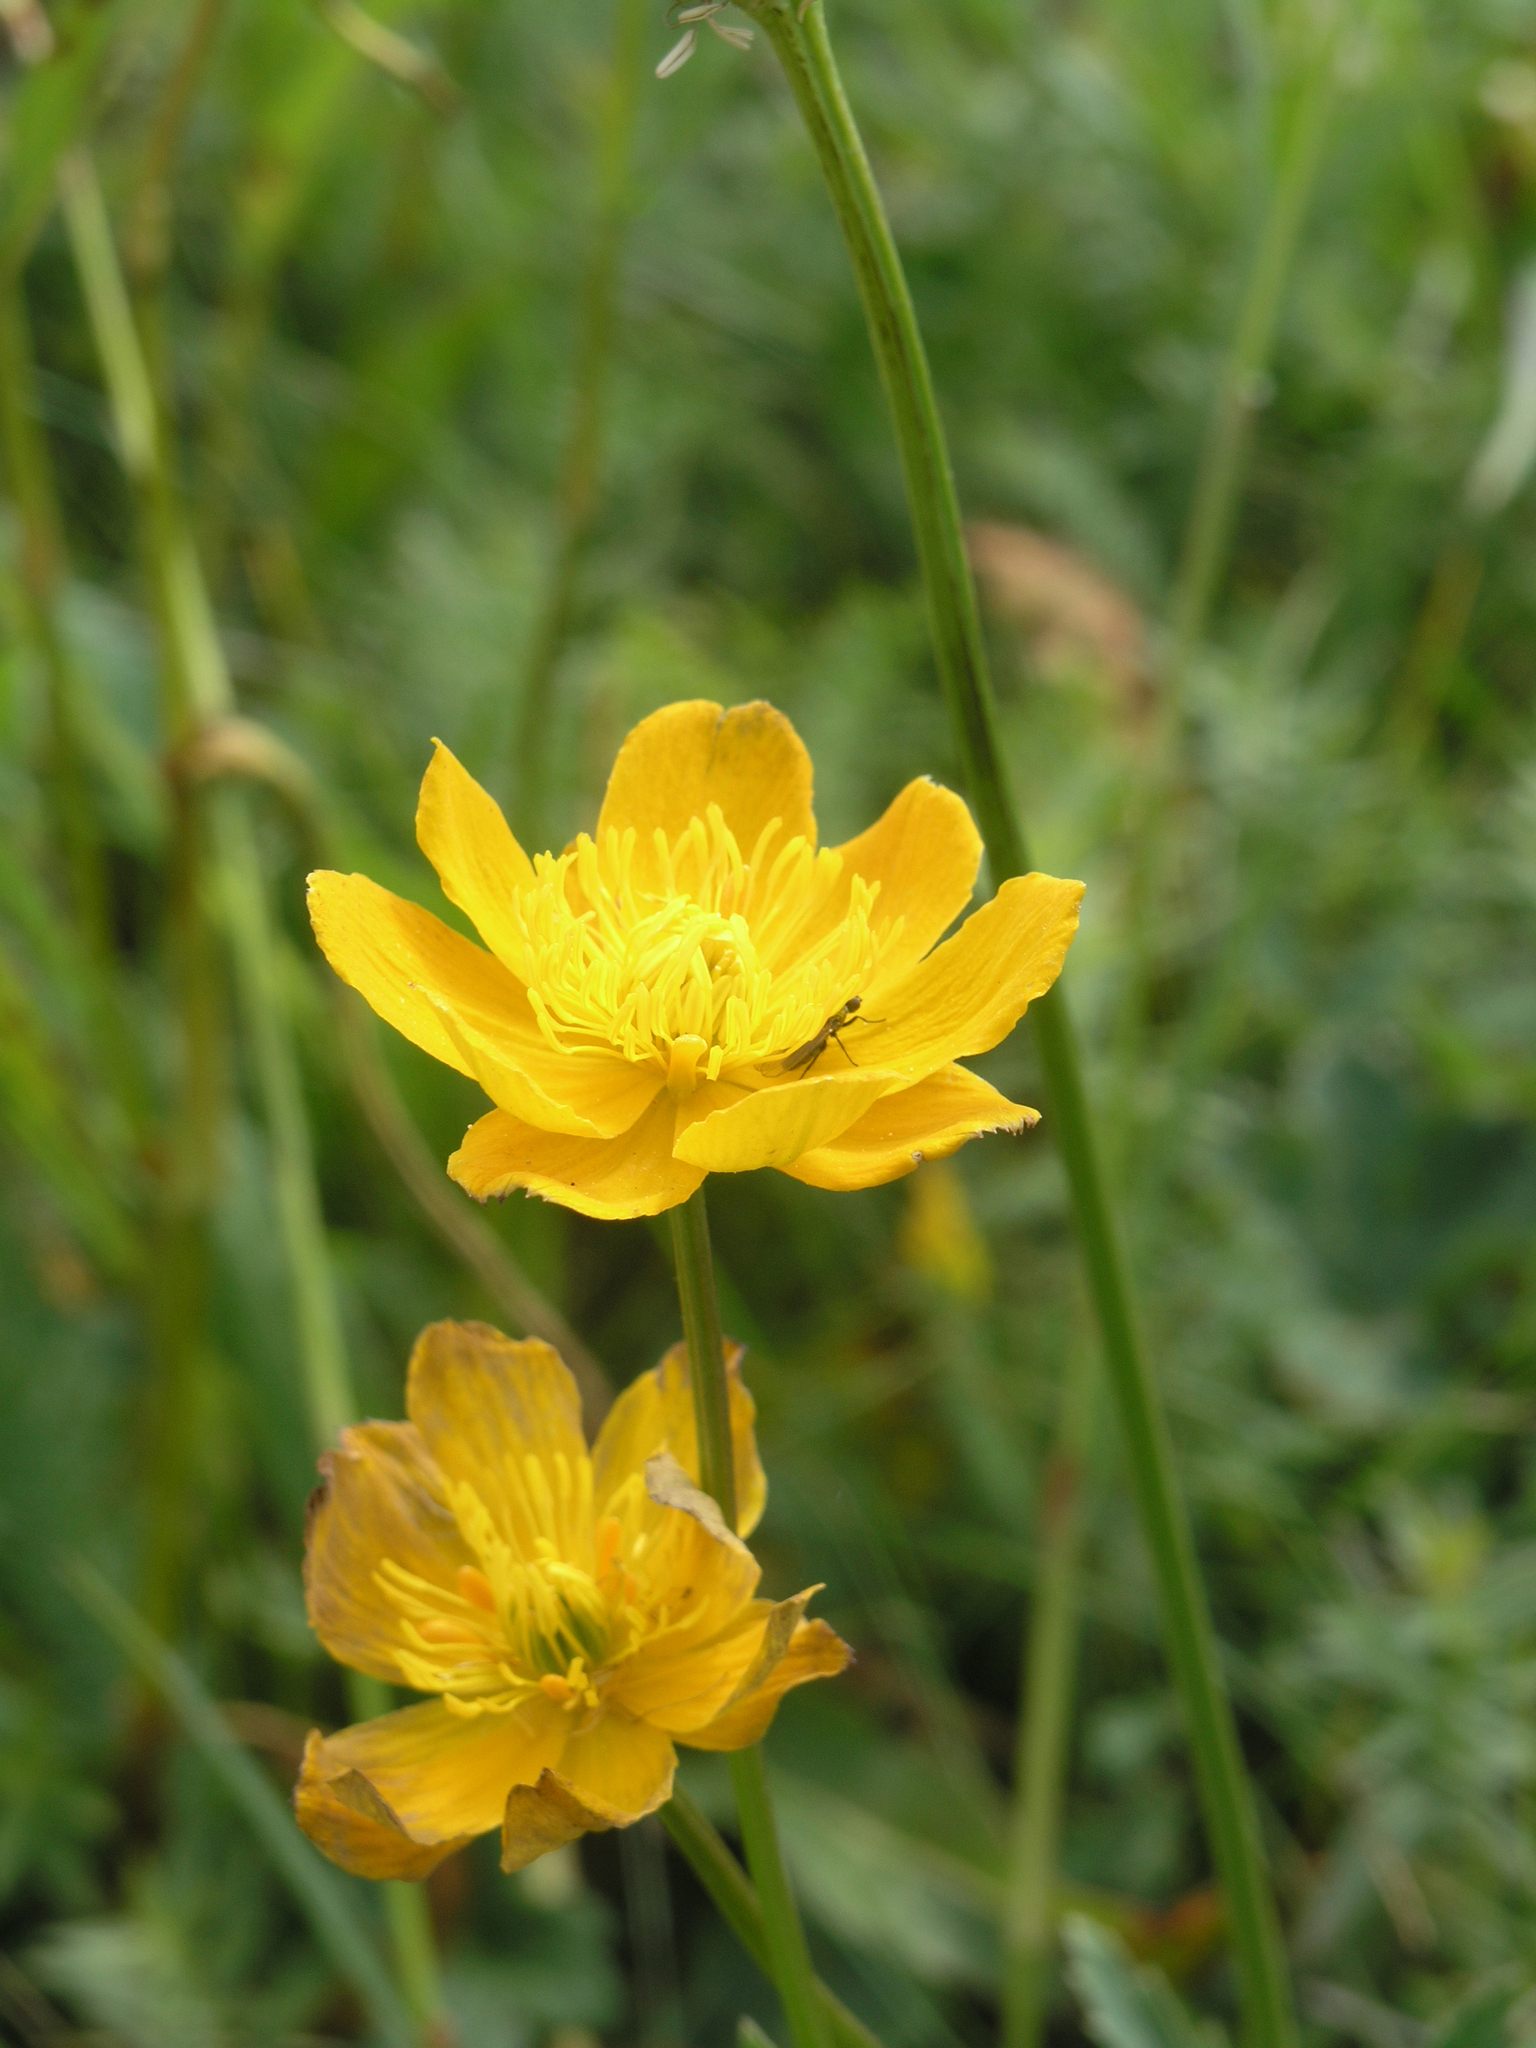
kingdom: Plantae
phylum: Tracheophyta
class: Magnoliopsida
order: Ranunculales
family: Ranunculaceae
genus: Trollius
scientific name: Trollius dschungaricus
